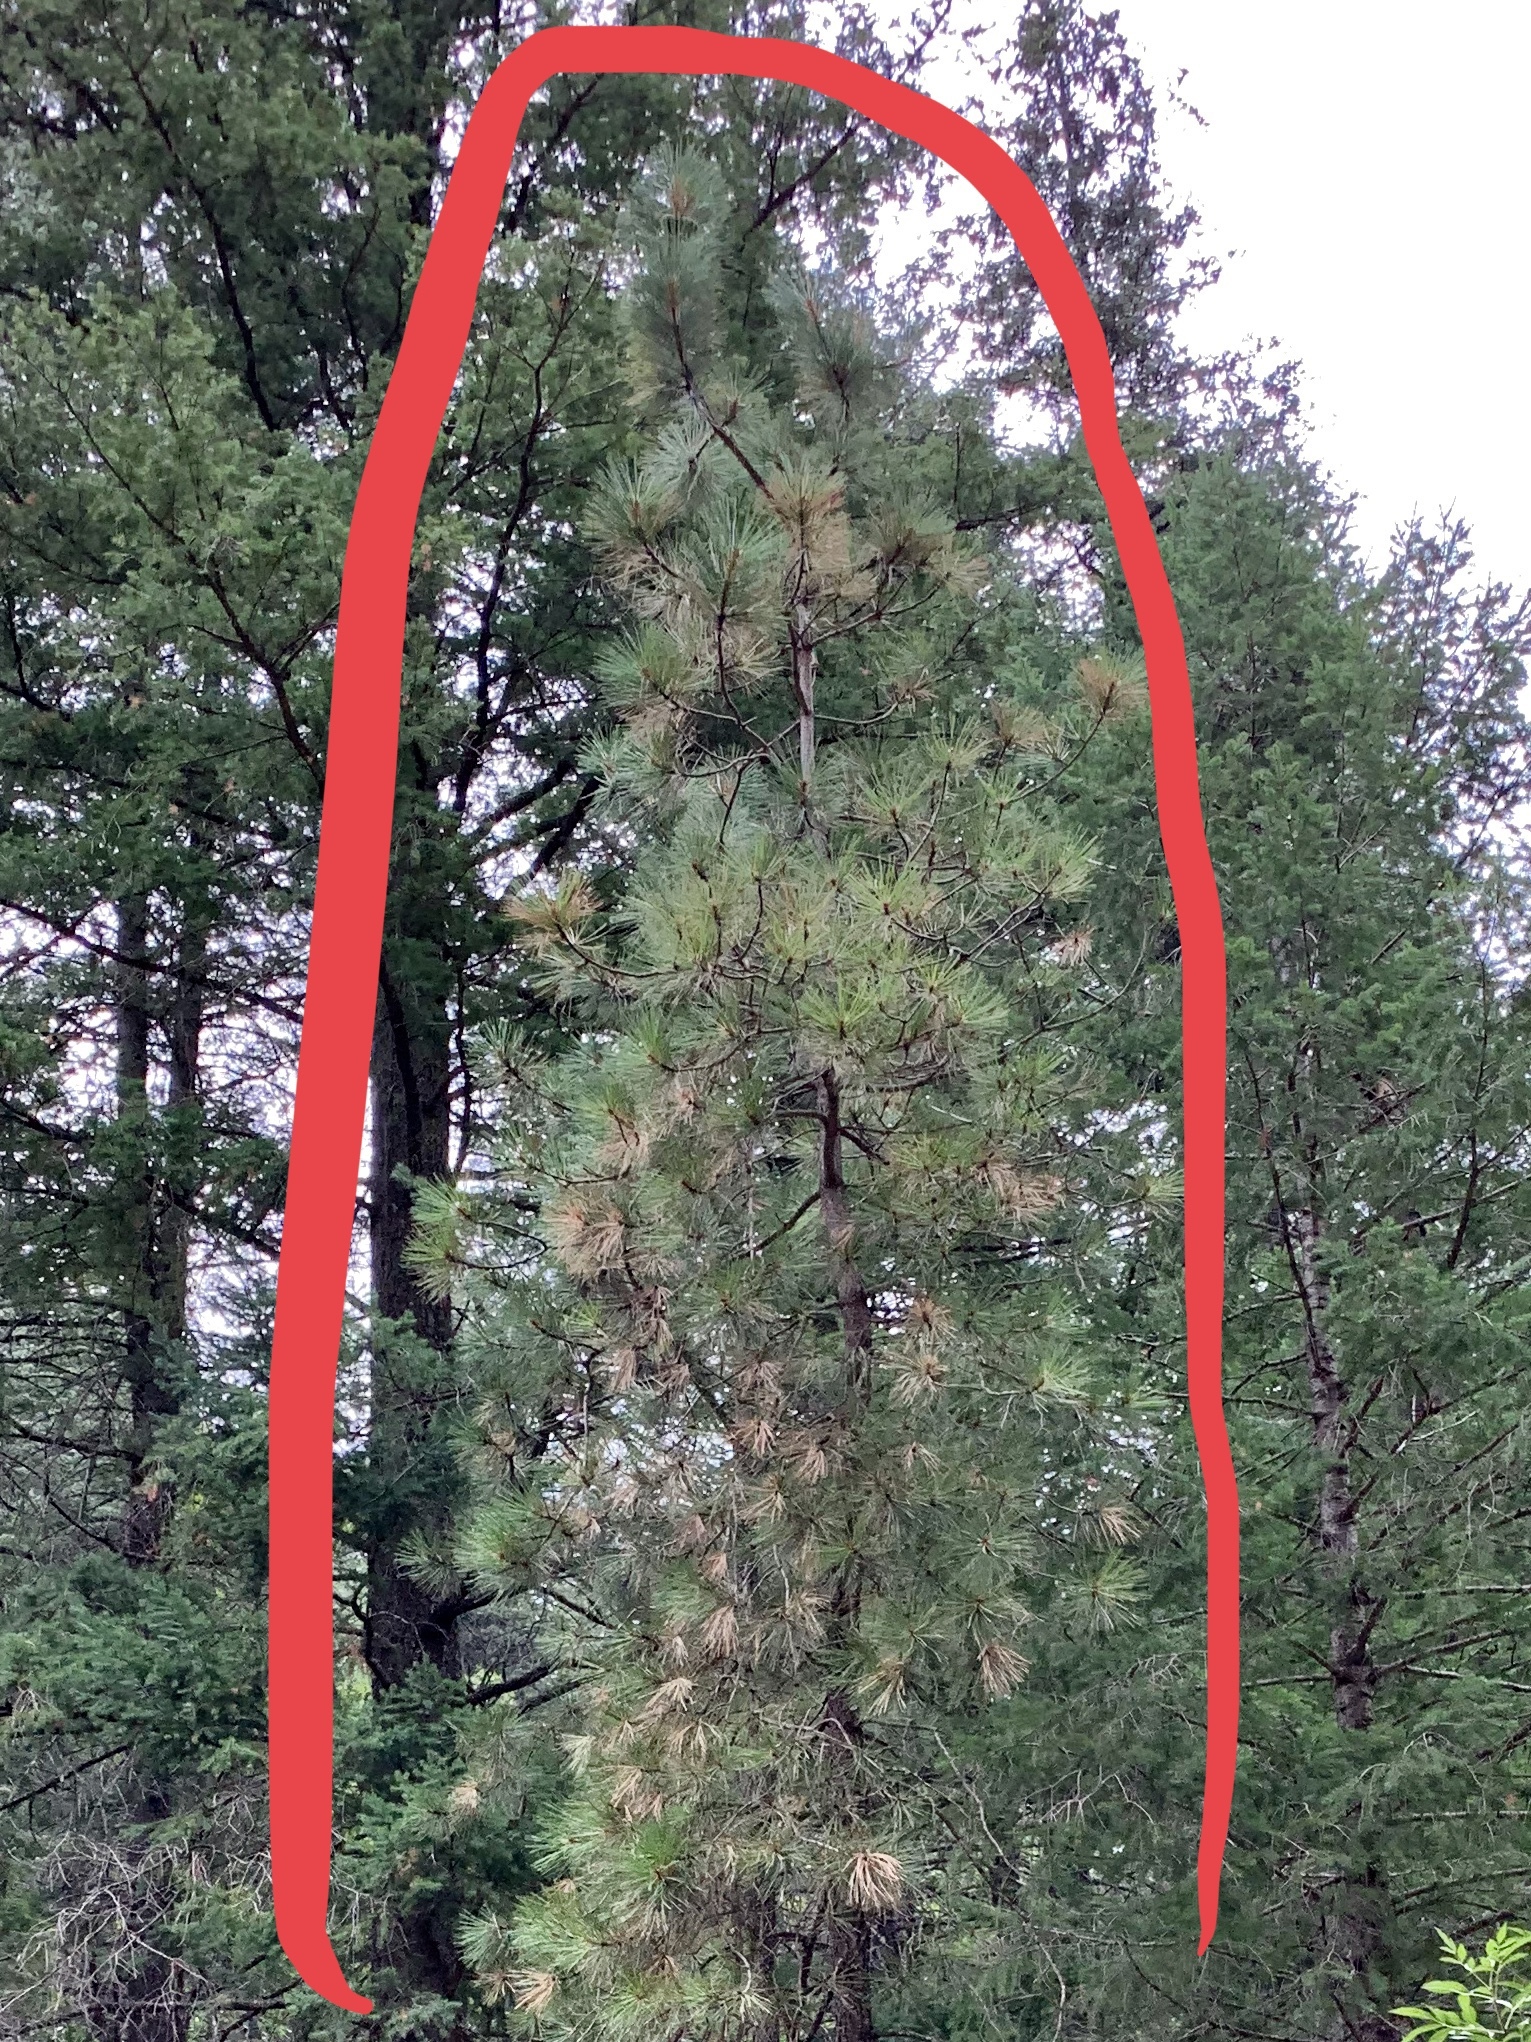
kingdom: Plantae
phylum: Tracheophyta
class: Pinopsida
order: Pinales
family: Pinaceae
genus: Pinus
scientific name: Pinus ponderosa
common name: Western yellow-pine
